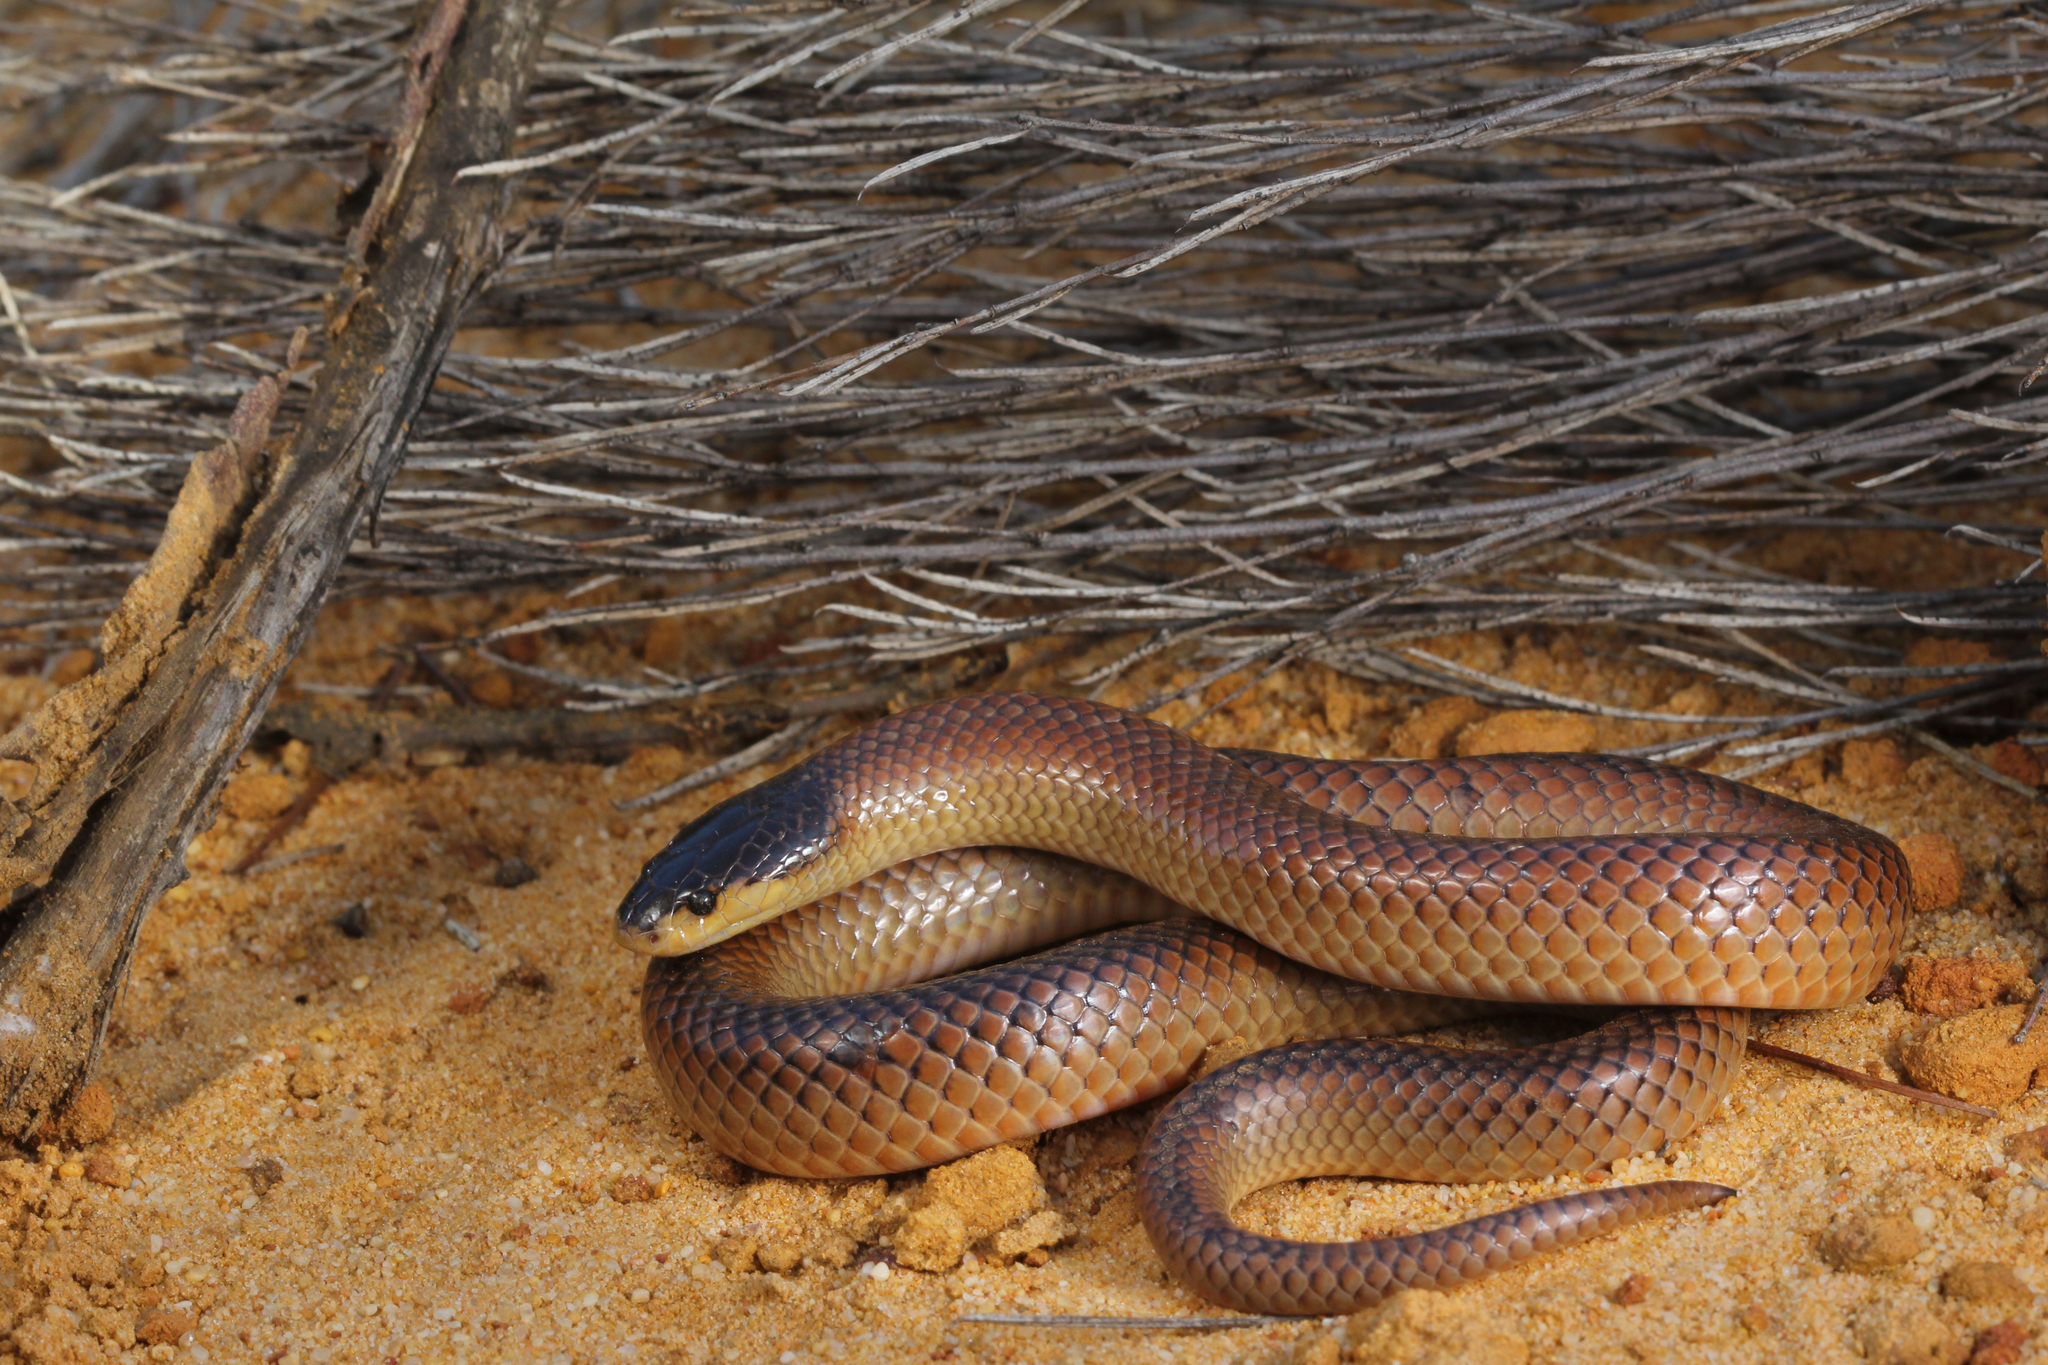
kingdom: Animalia
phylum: Chordata
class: Squamata
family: Elapidae
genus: Suta
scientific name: Suta nigriceps
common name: Mallee black-backed snake
